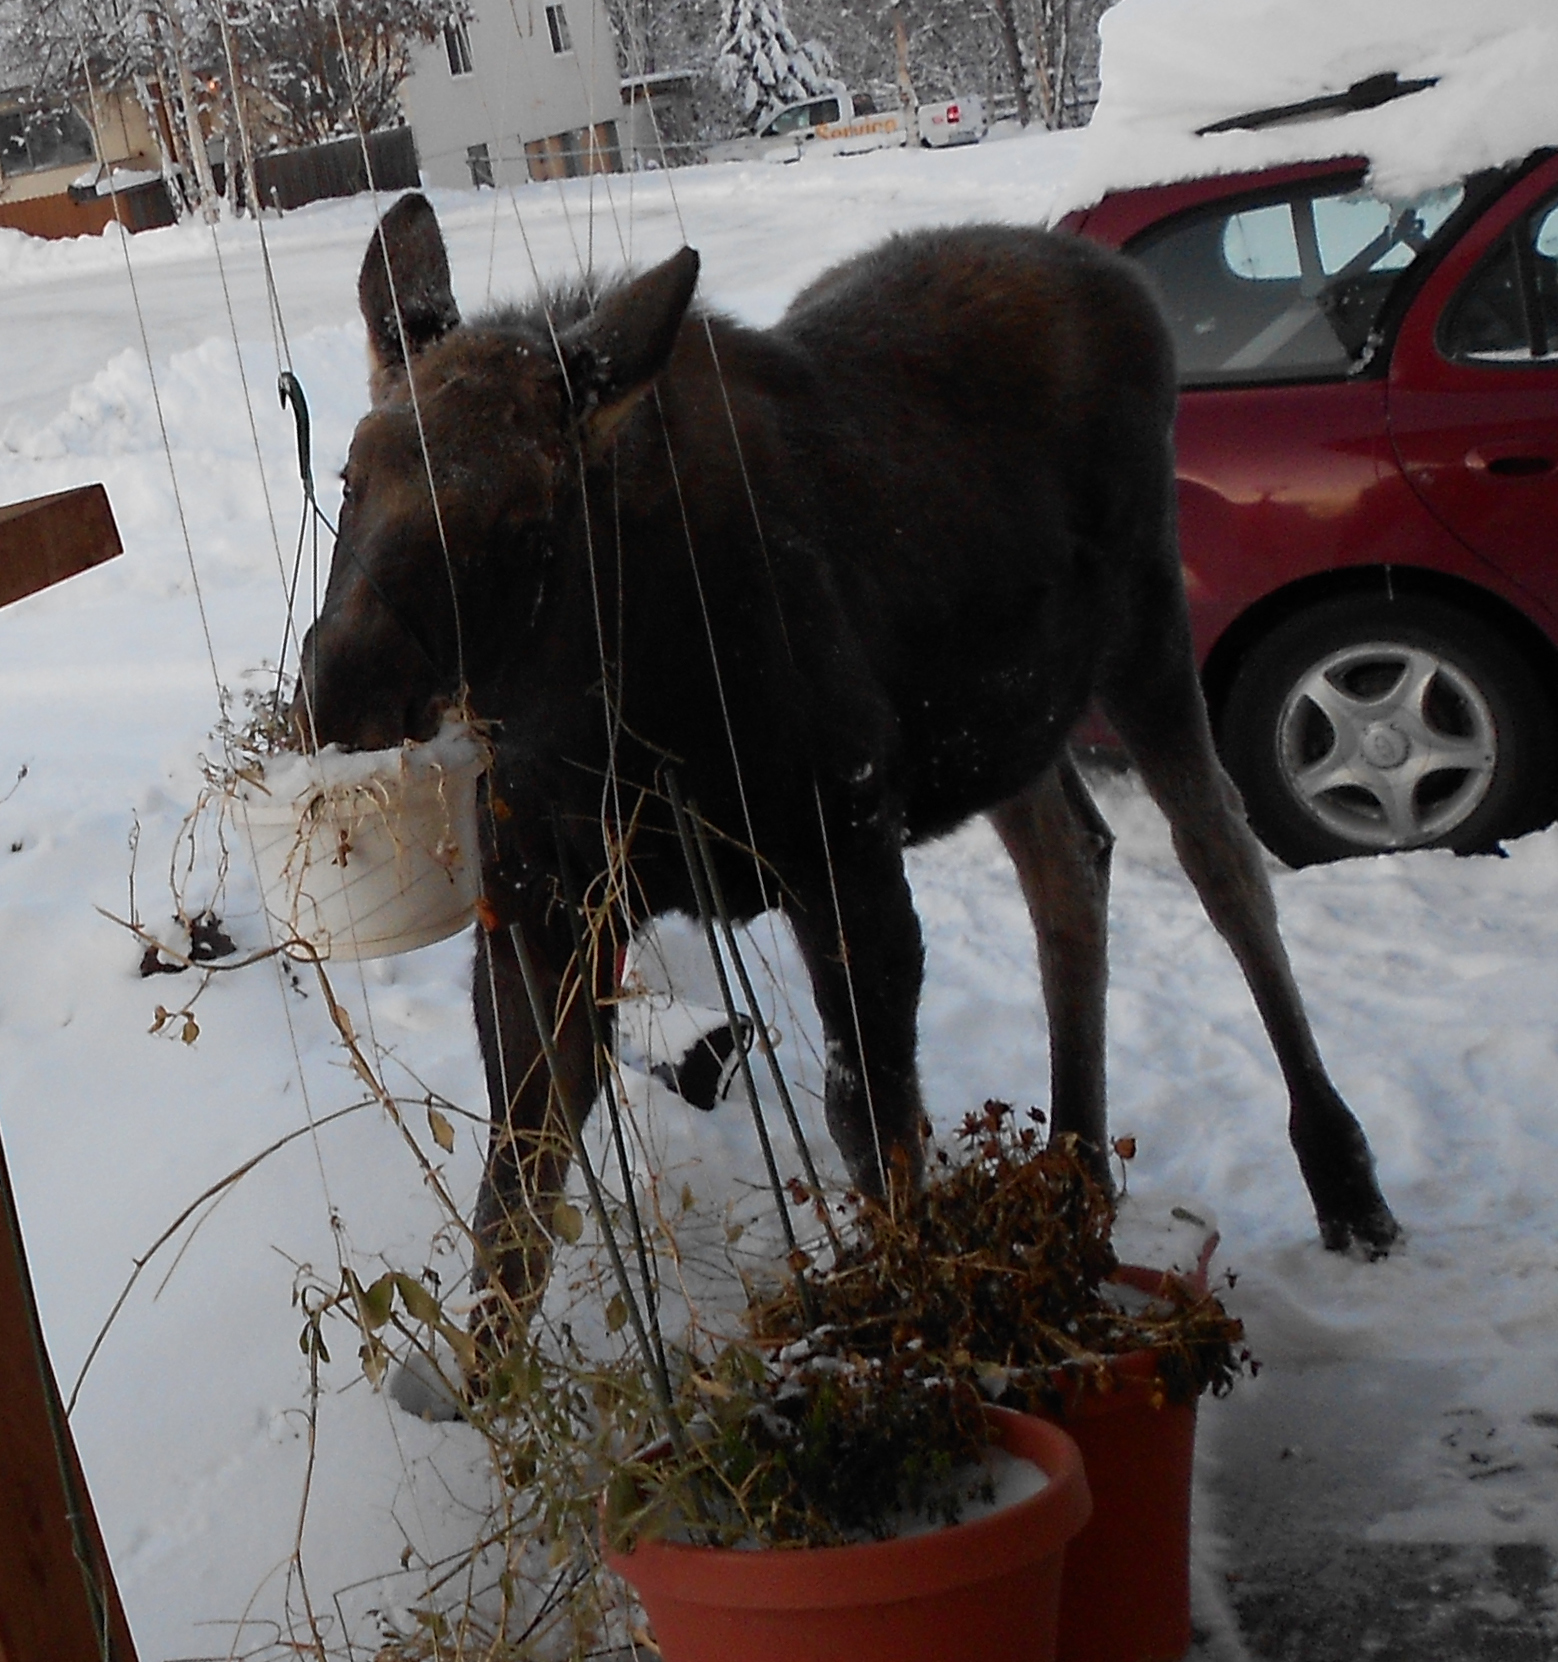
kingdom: Animalia
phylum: Chordata
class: Mammalia
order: Artiodactyla
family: Cervidae
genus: Alces
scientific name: Alces alces
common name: Moose
